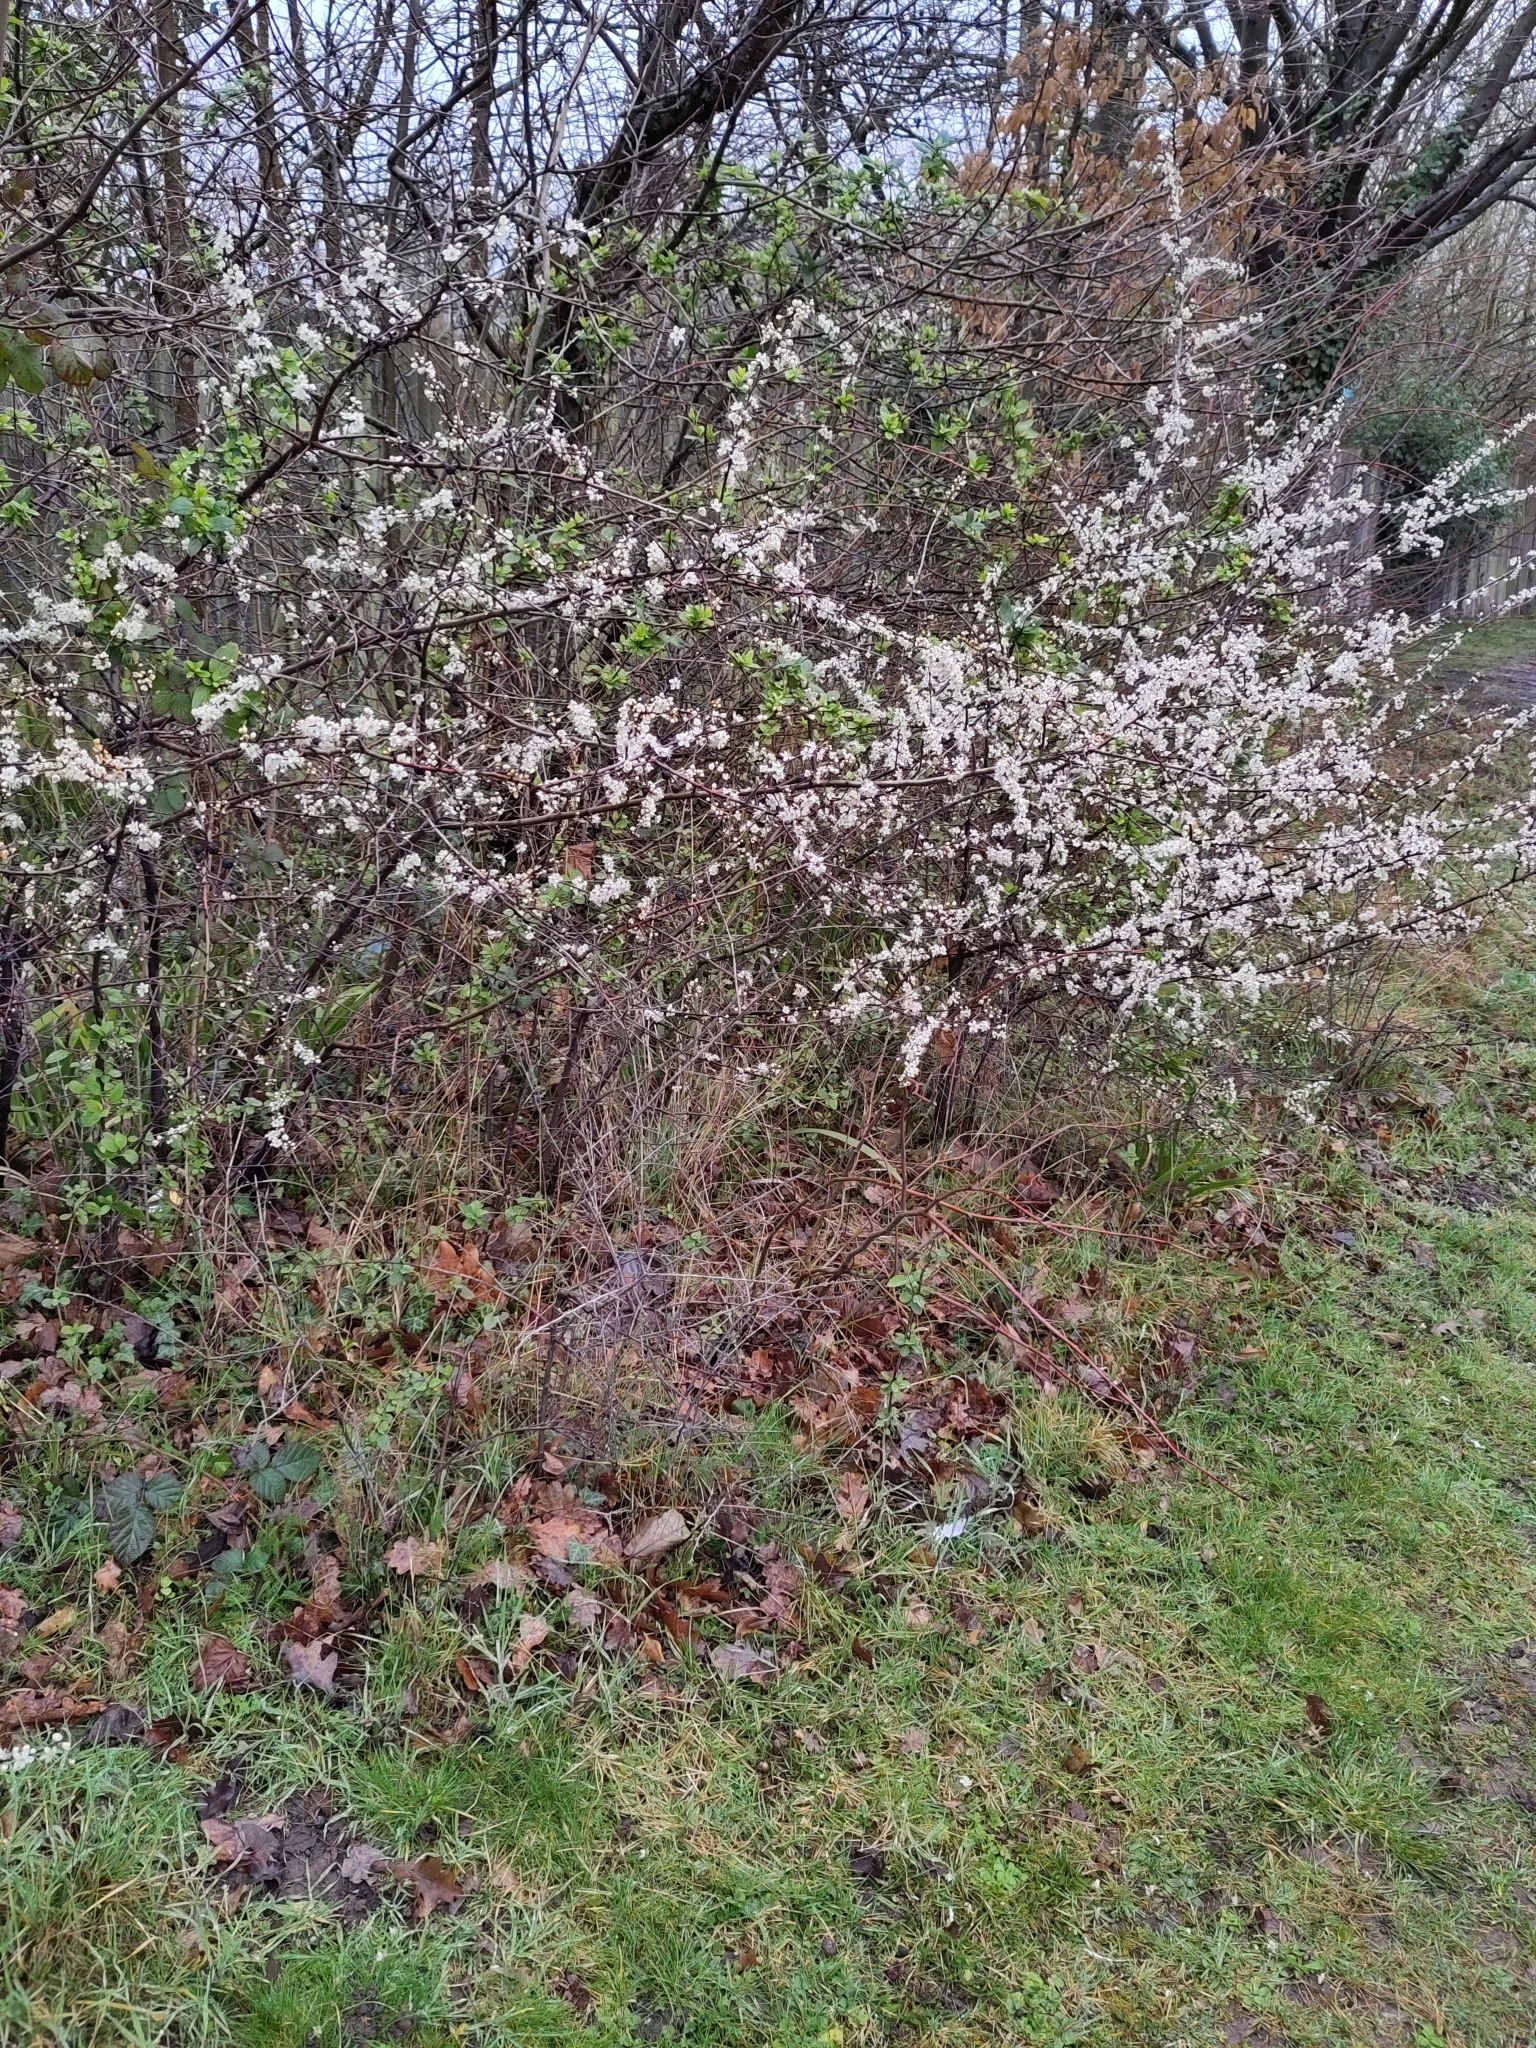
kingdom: Plantae
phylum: Tracheophyta
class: Magnoliopsida
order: Rosales
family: Rosaceae
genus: Prunus
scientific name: Prunus spinosa
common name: Blackthorn
